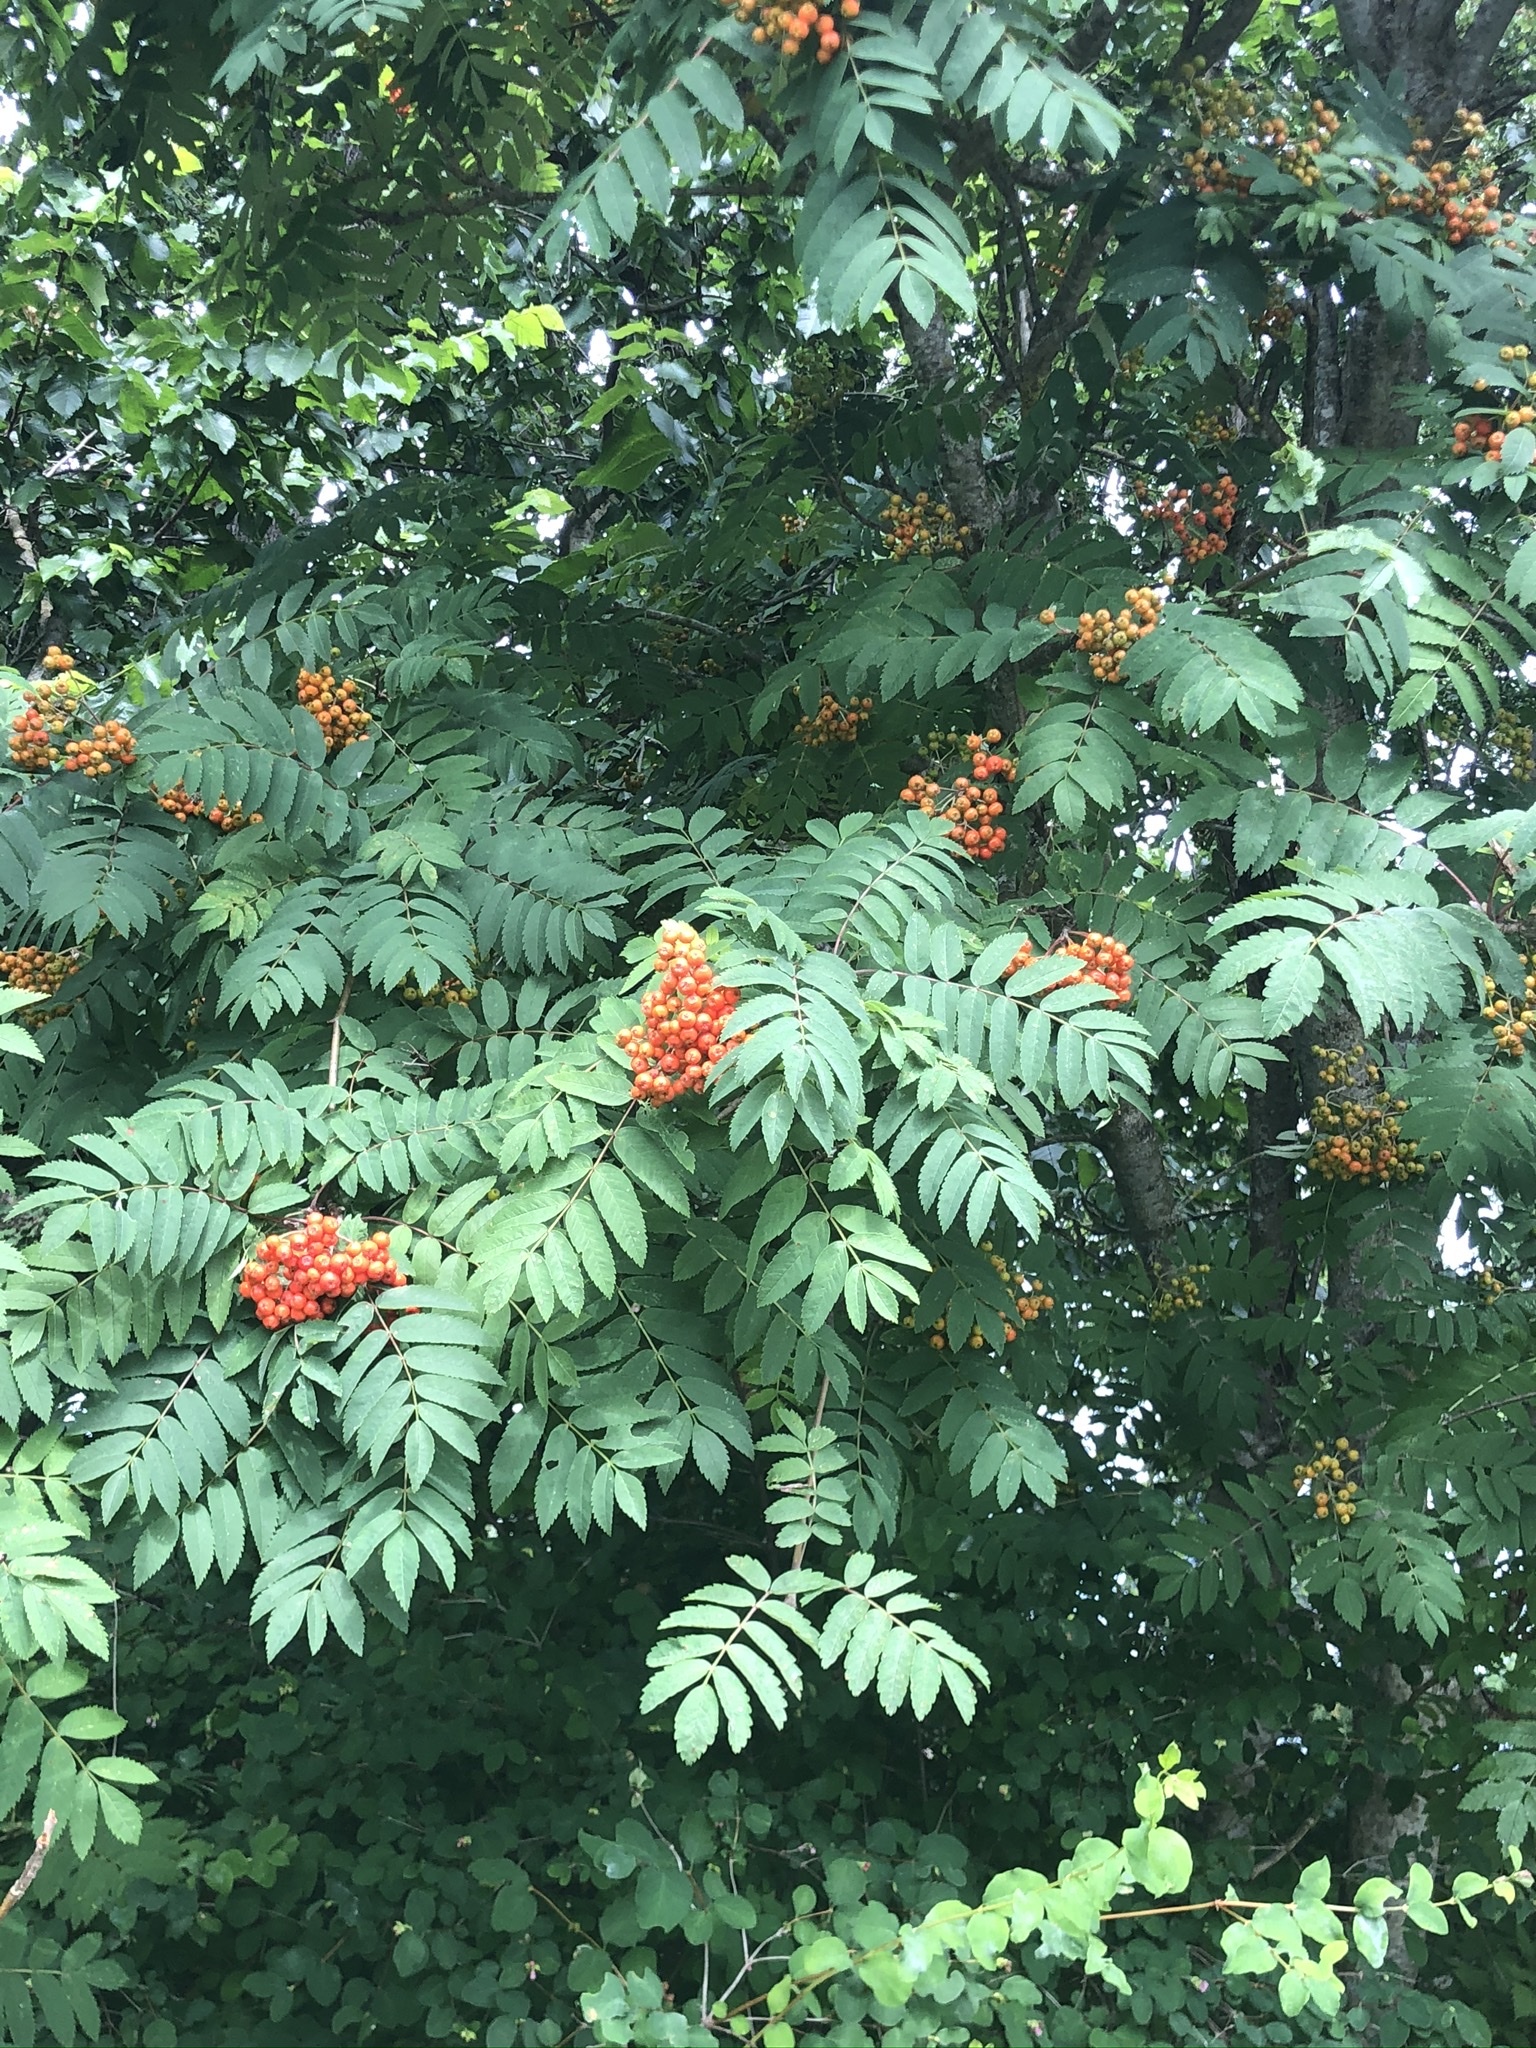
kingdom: Plantae
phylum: Tracheophyta
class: Magnoliopsida
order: Rosales
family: Rosaceae
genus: Sorbus
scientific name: Sorbus aucuparia
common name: Rowan
